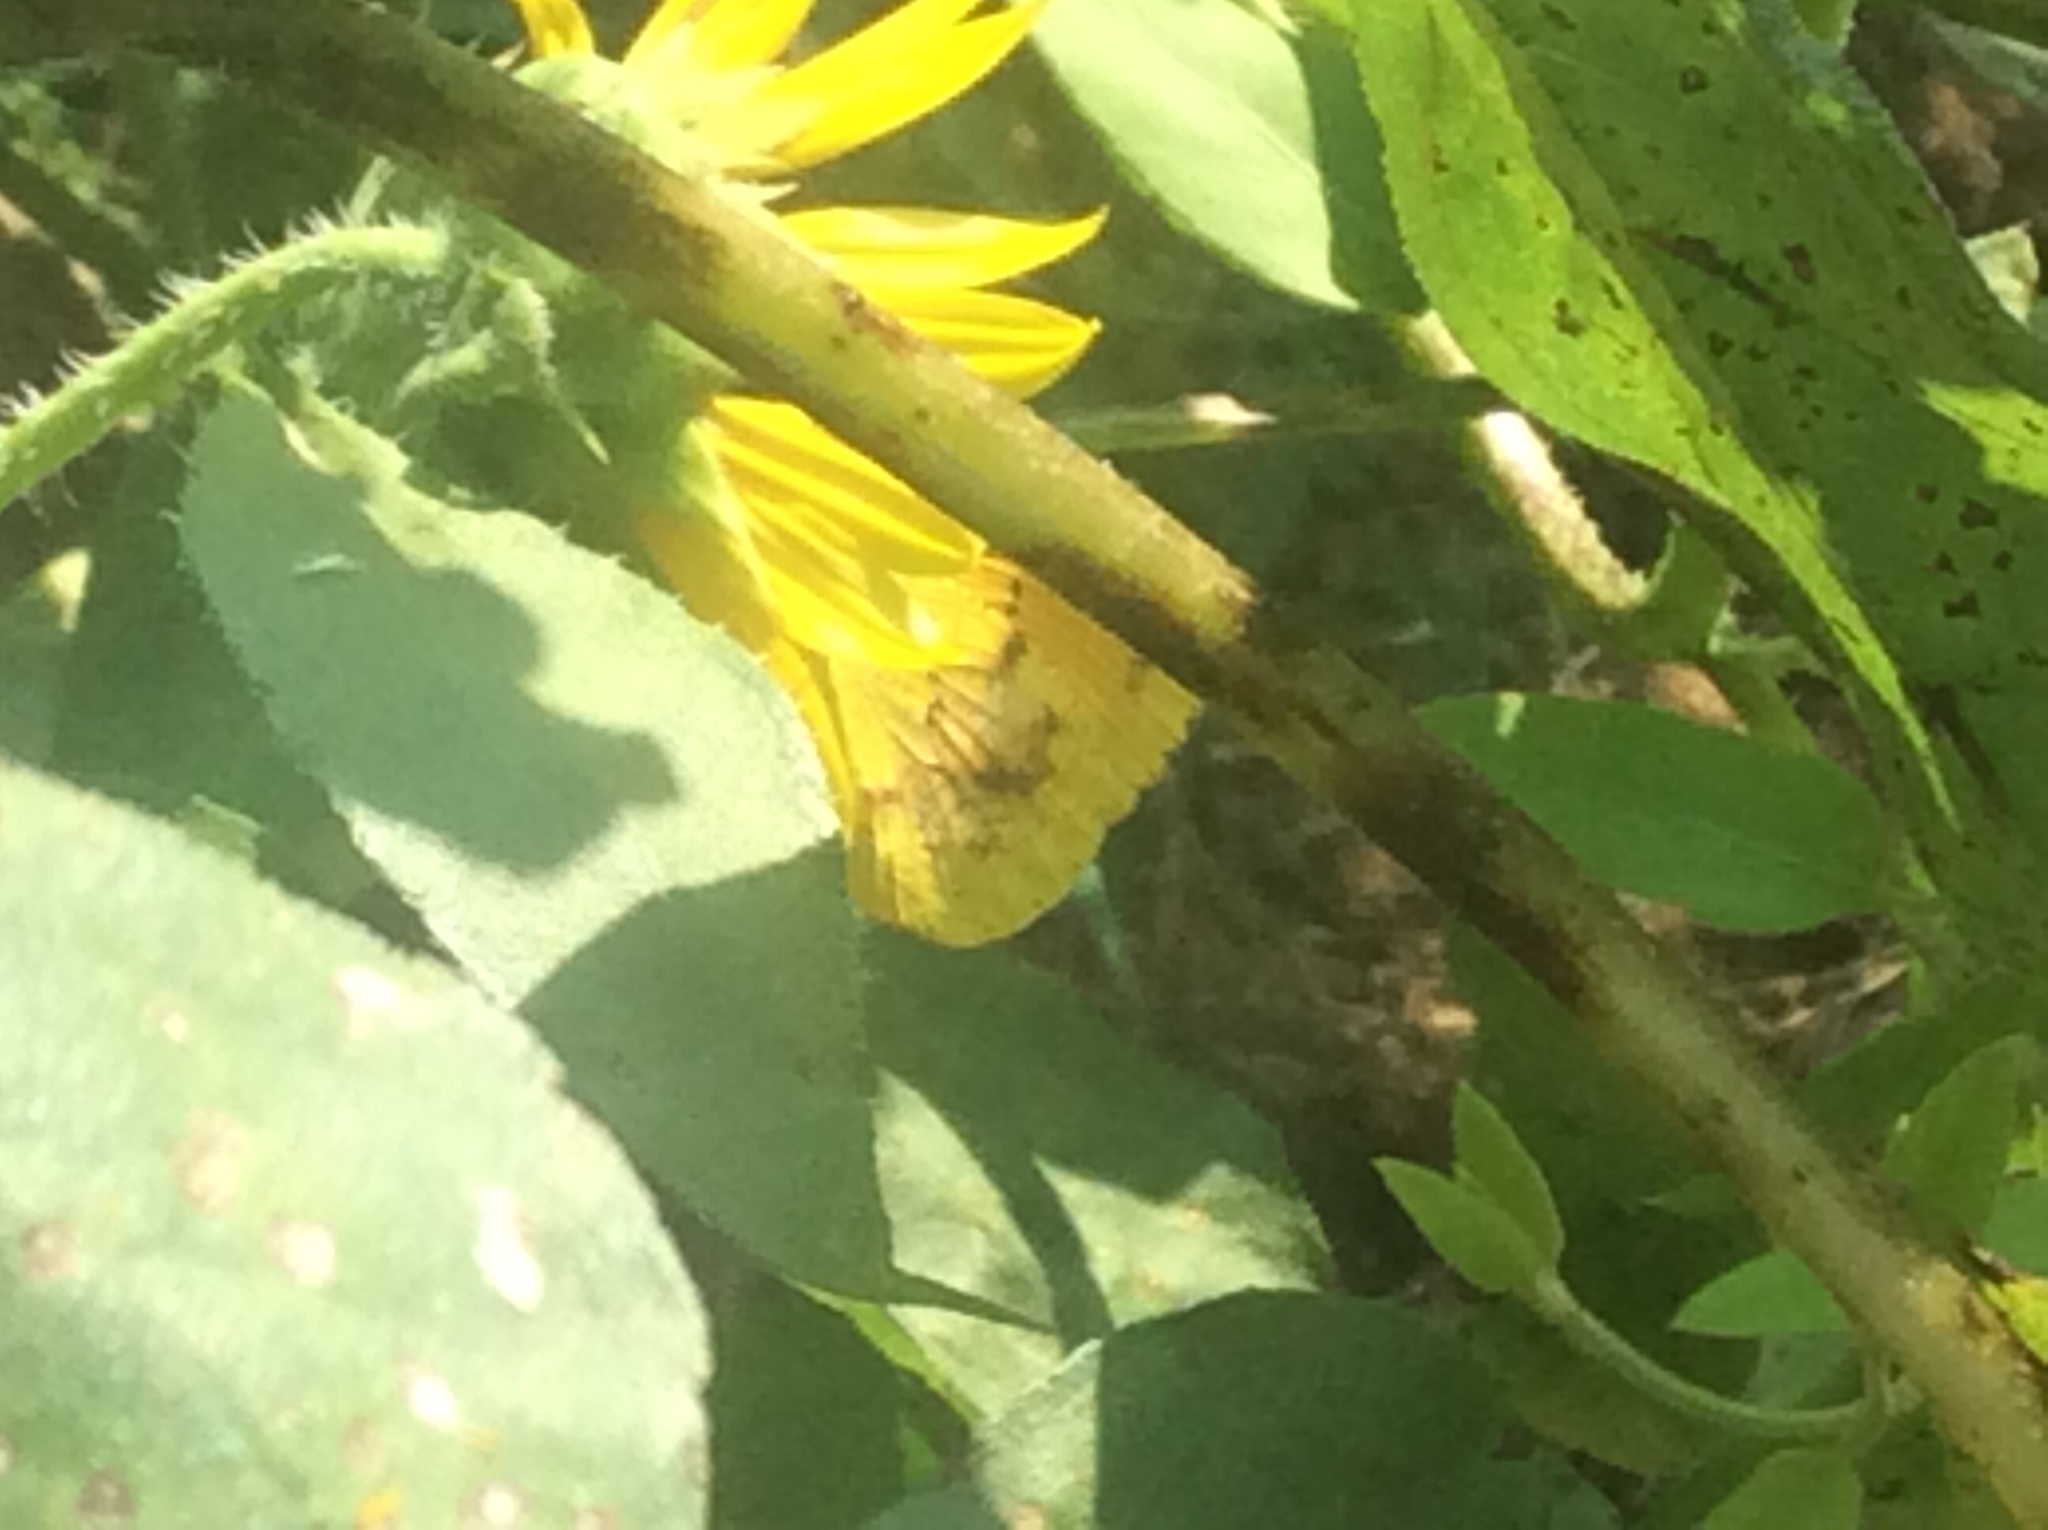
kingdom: Animalia
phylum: Arthropoda
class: Insecta
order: Lepidoptera
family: Pieridae
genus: Abaeis
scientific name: Abaeis nicippe
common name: Sleepy orange
